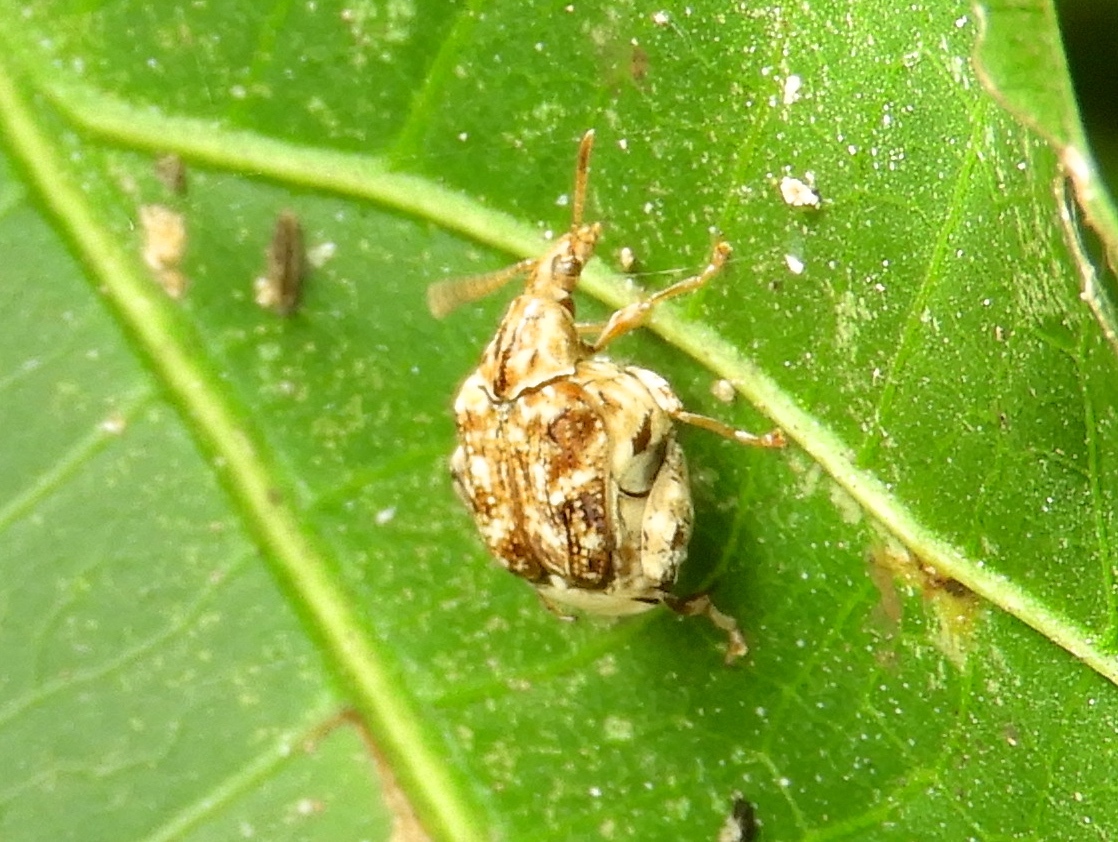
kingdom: Animalia
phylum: Arthropoda
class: Insecta
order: Coleoptera
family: Chrysomelidae
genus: Merobruchus
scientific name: Merobruchus
